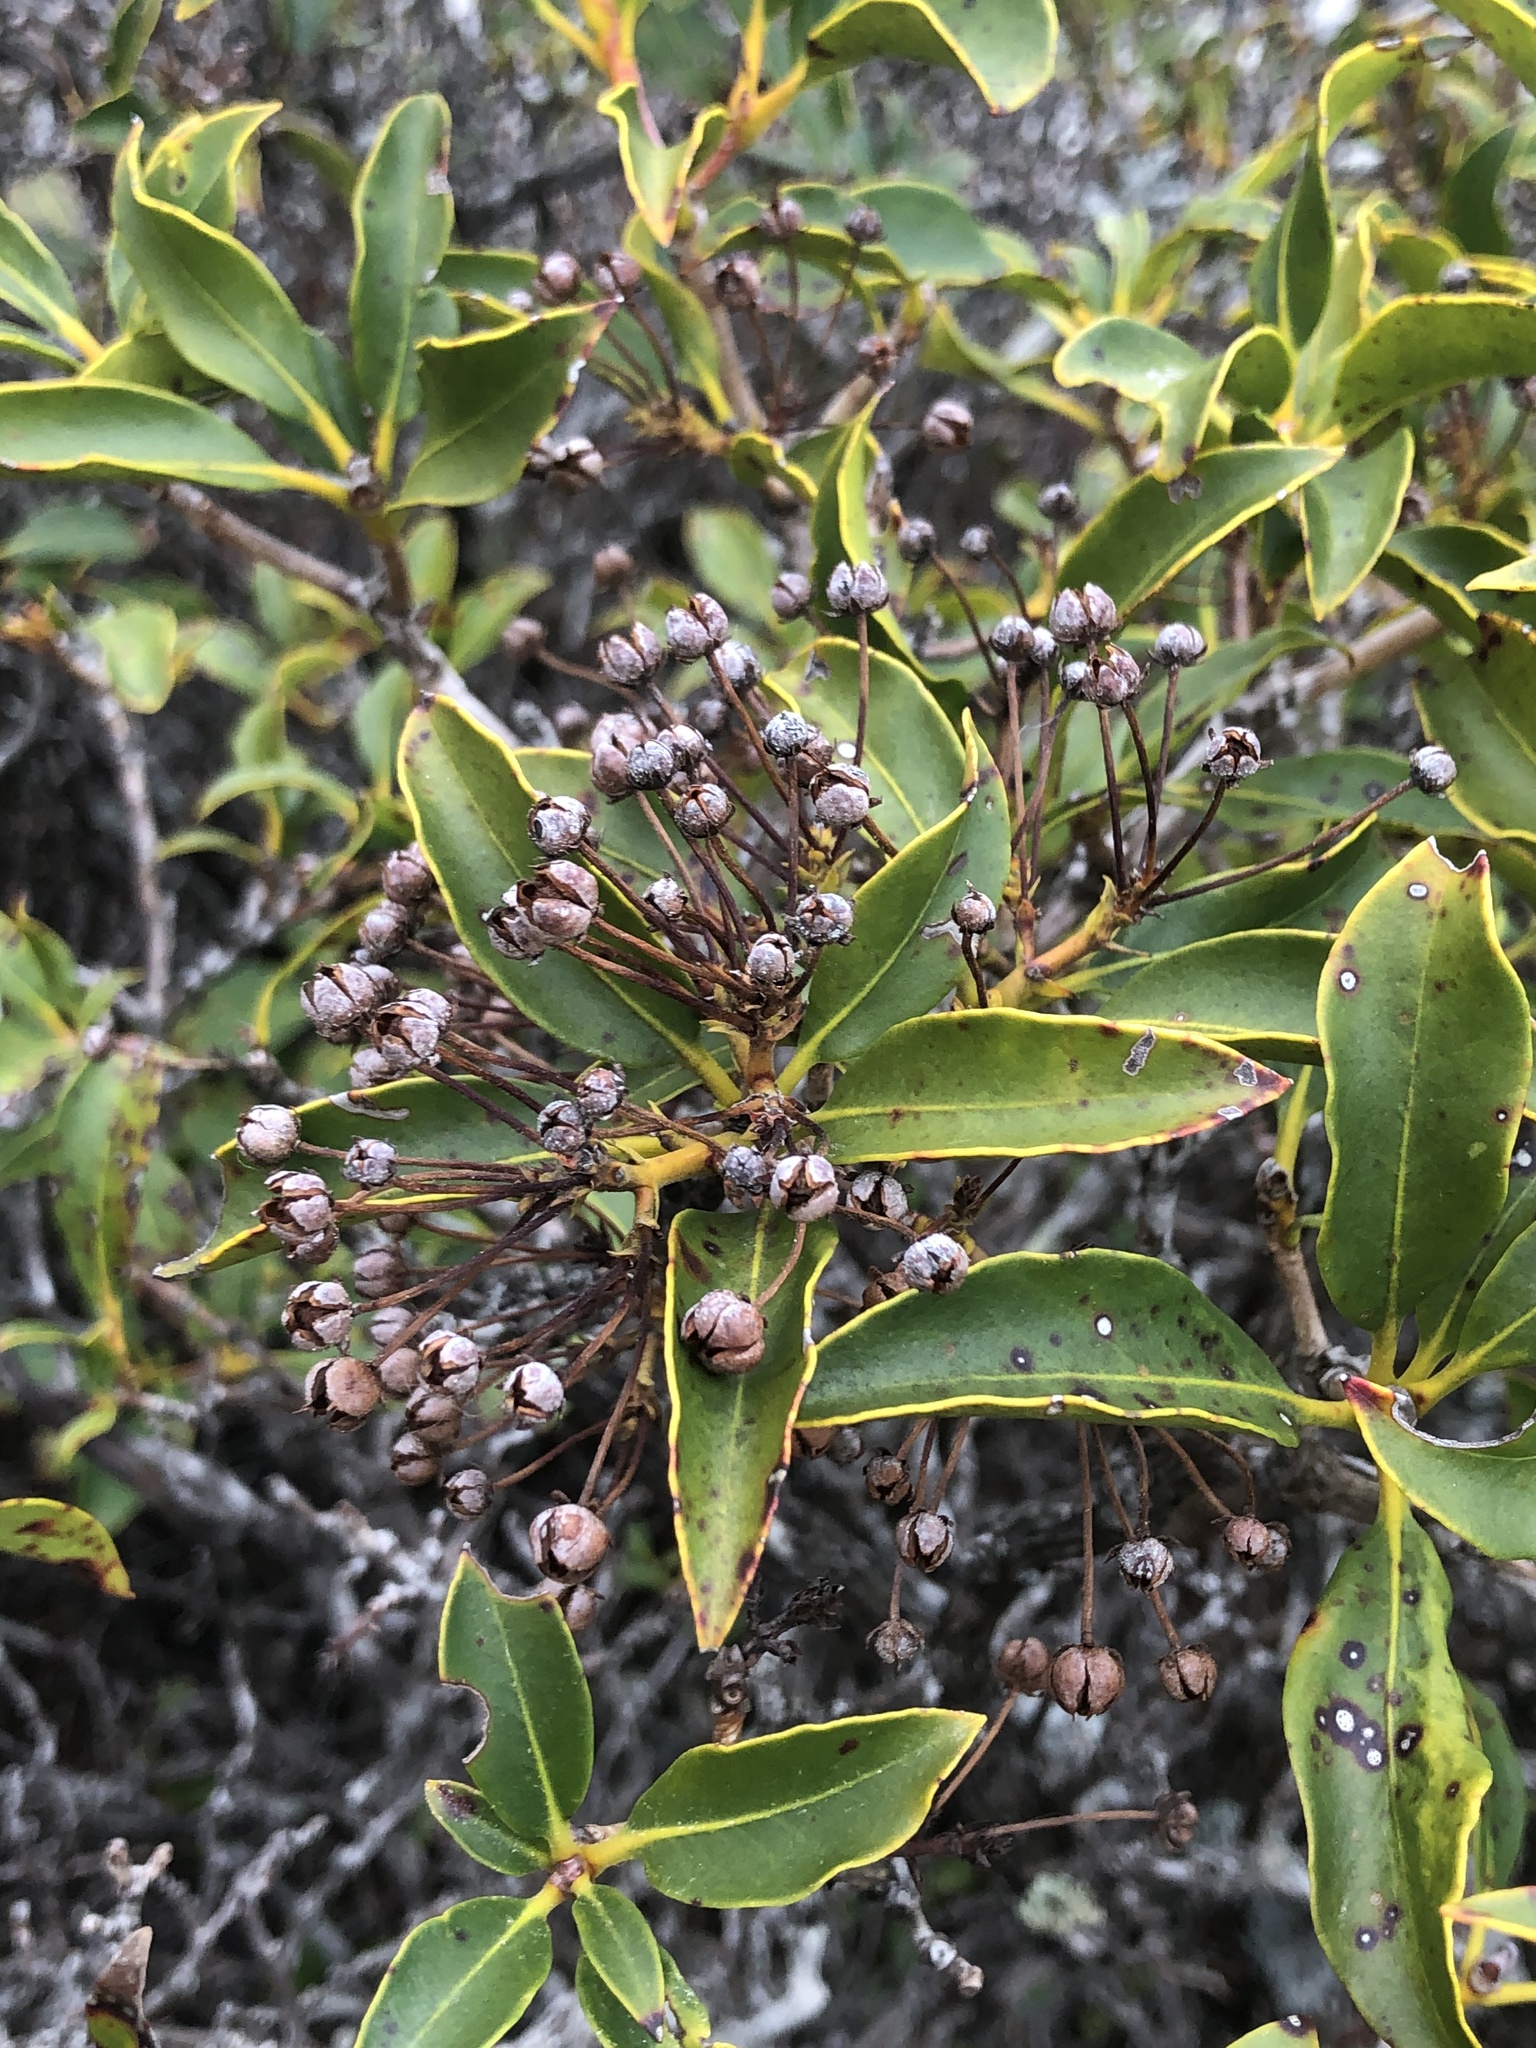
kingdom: Plantae
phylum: Tracheophyta
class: Magnoliopsida
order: Ericales
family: Ericaceae
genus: Kalmia
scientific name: Kalmia latifolia
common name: Mountain-laurel
